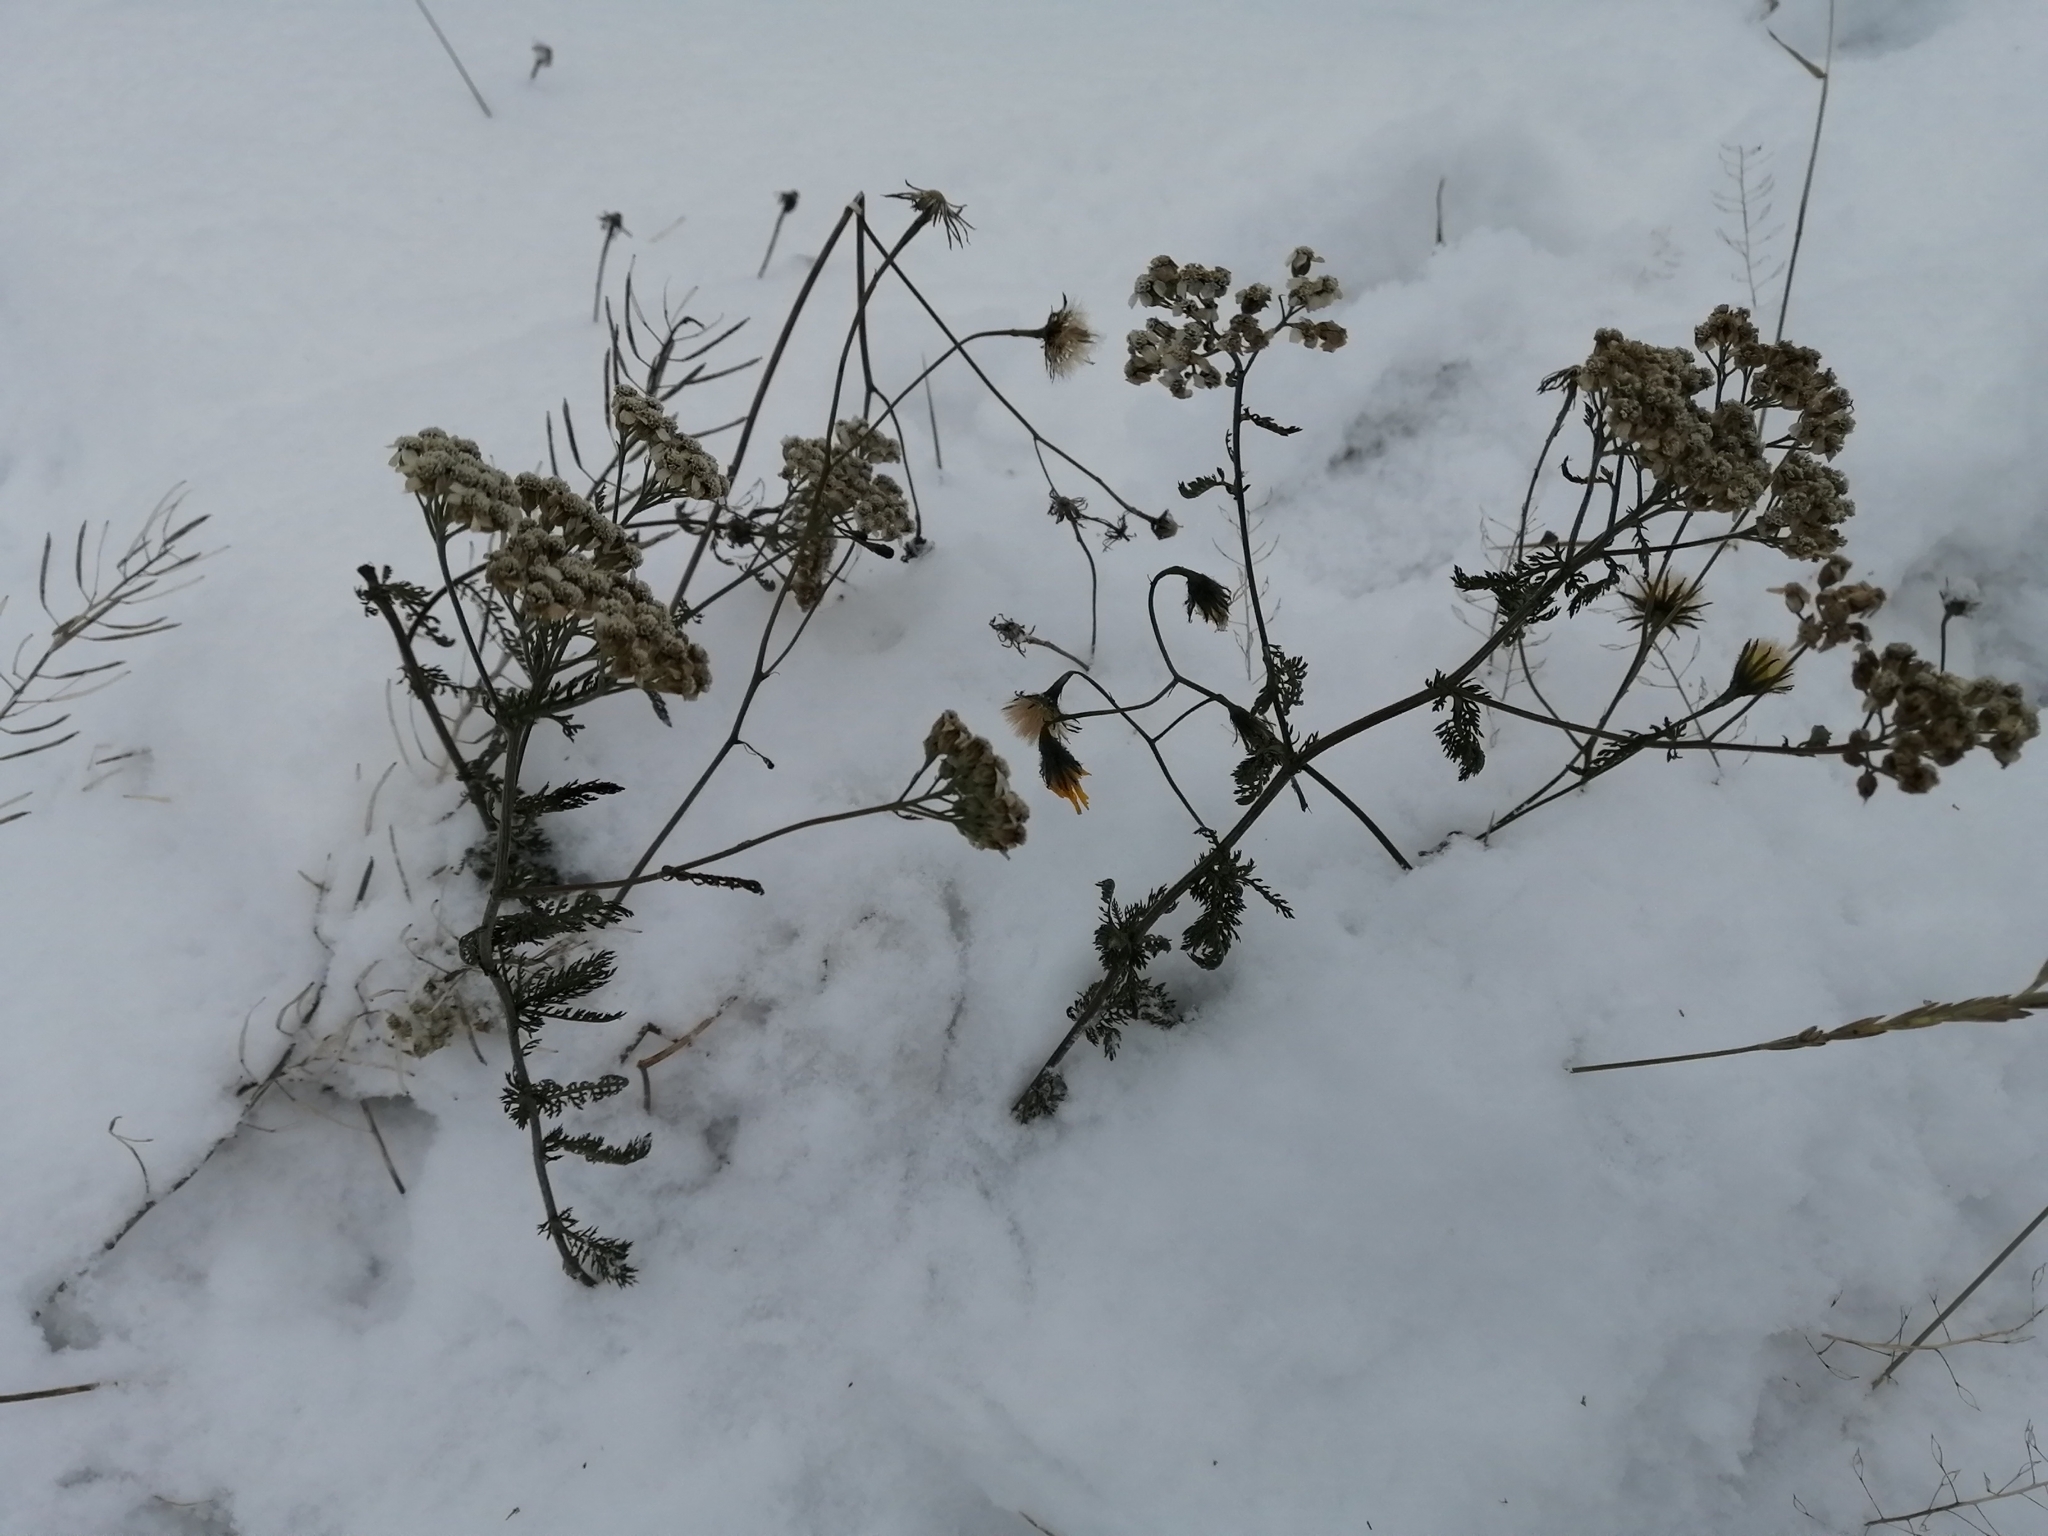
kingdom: Plantae
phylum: Tracheophyta
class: Magnoliopsida
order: Asterales
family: Asteraceae
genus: Achillea
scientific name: Achillea millefolium
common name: Yarrow
